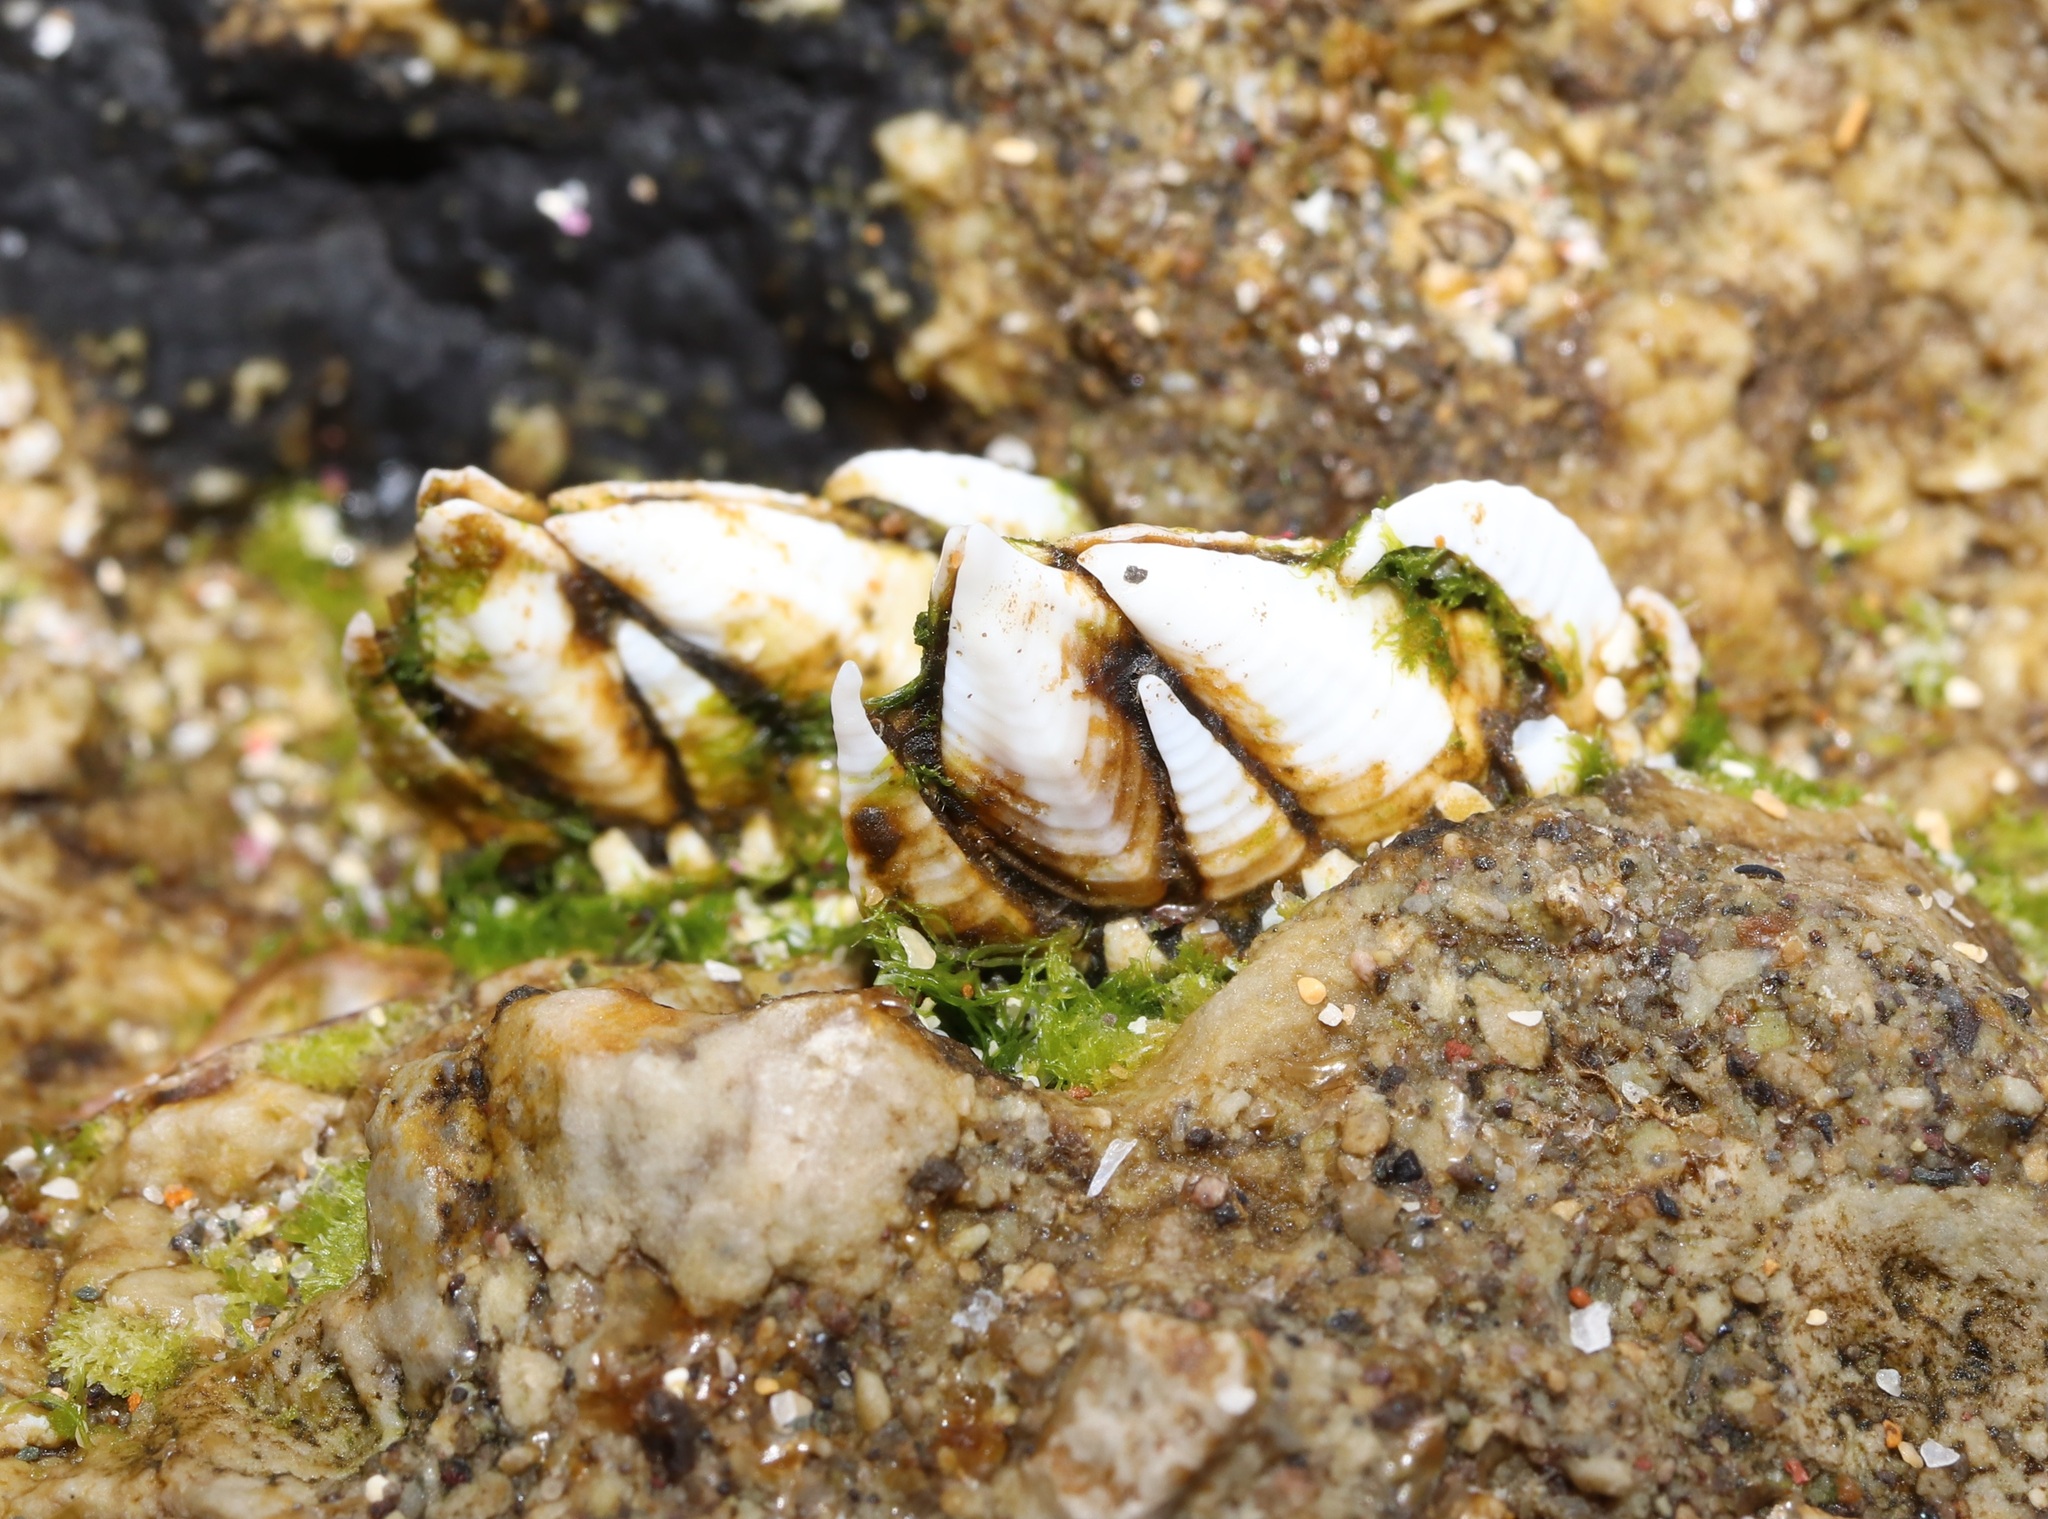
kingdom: Animalia
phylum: Arthropoda
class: Maxillopoda
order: Pedunculata
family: Pollicipedidae
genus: Capitulum
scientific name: Capitulum mitella
